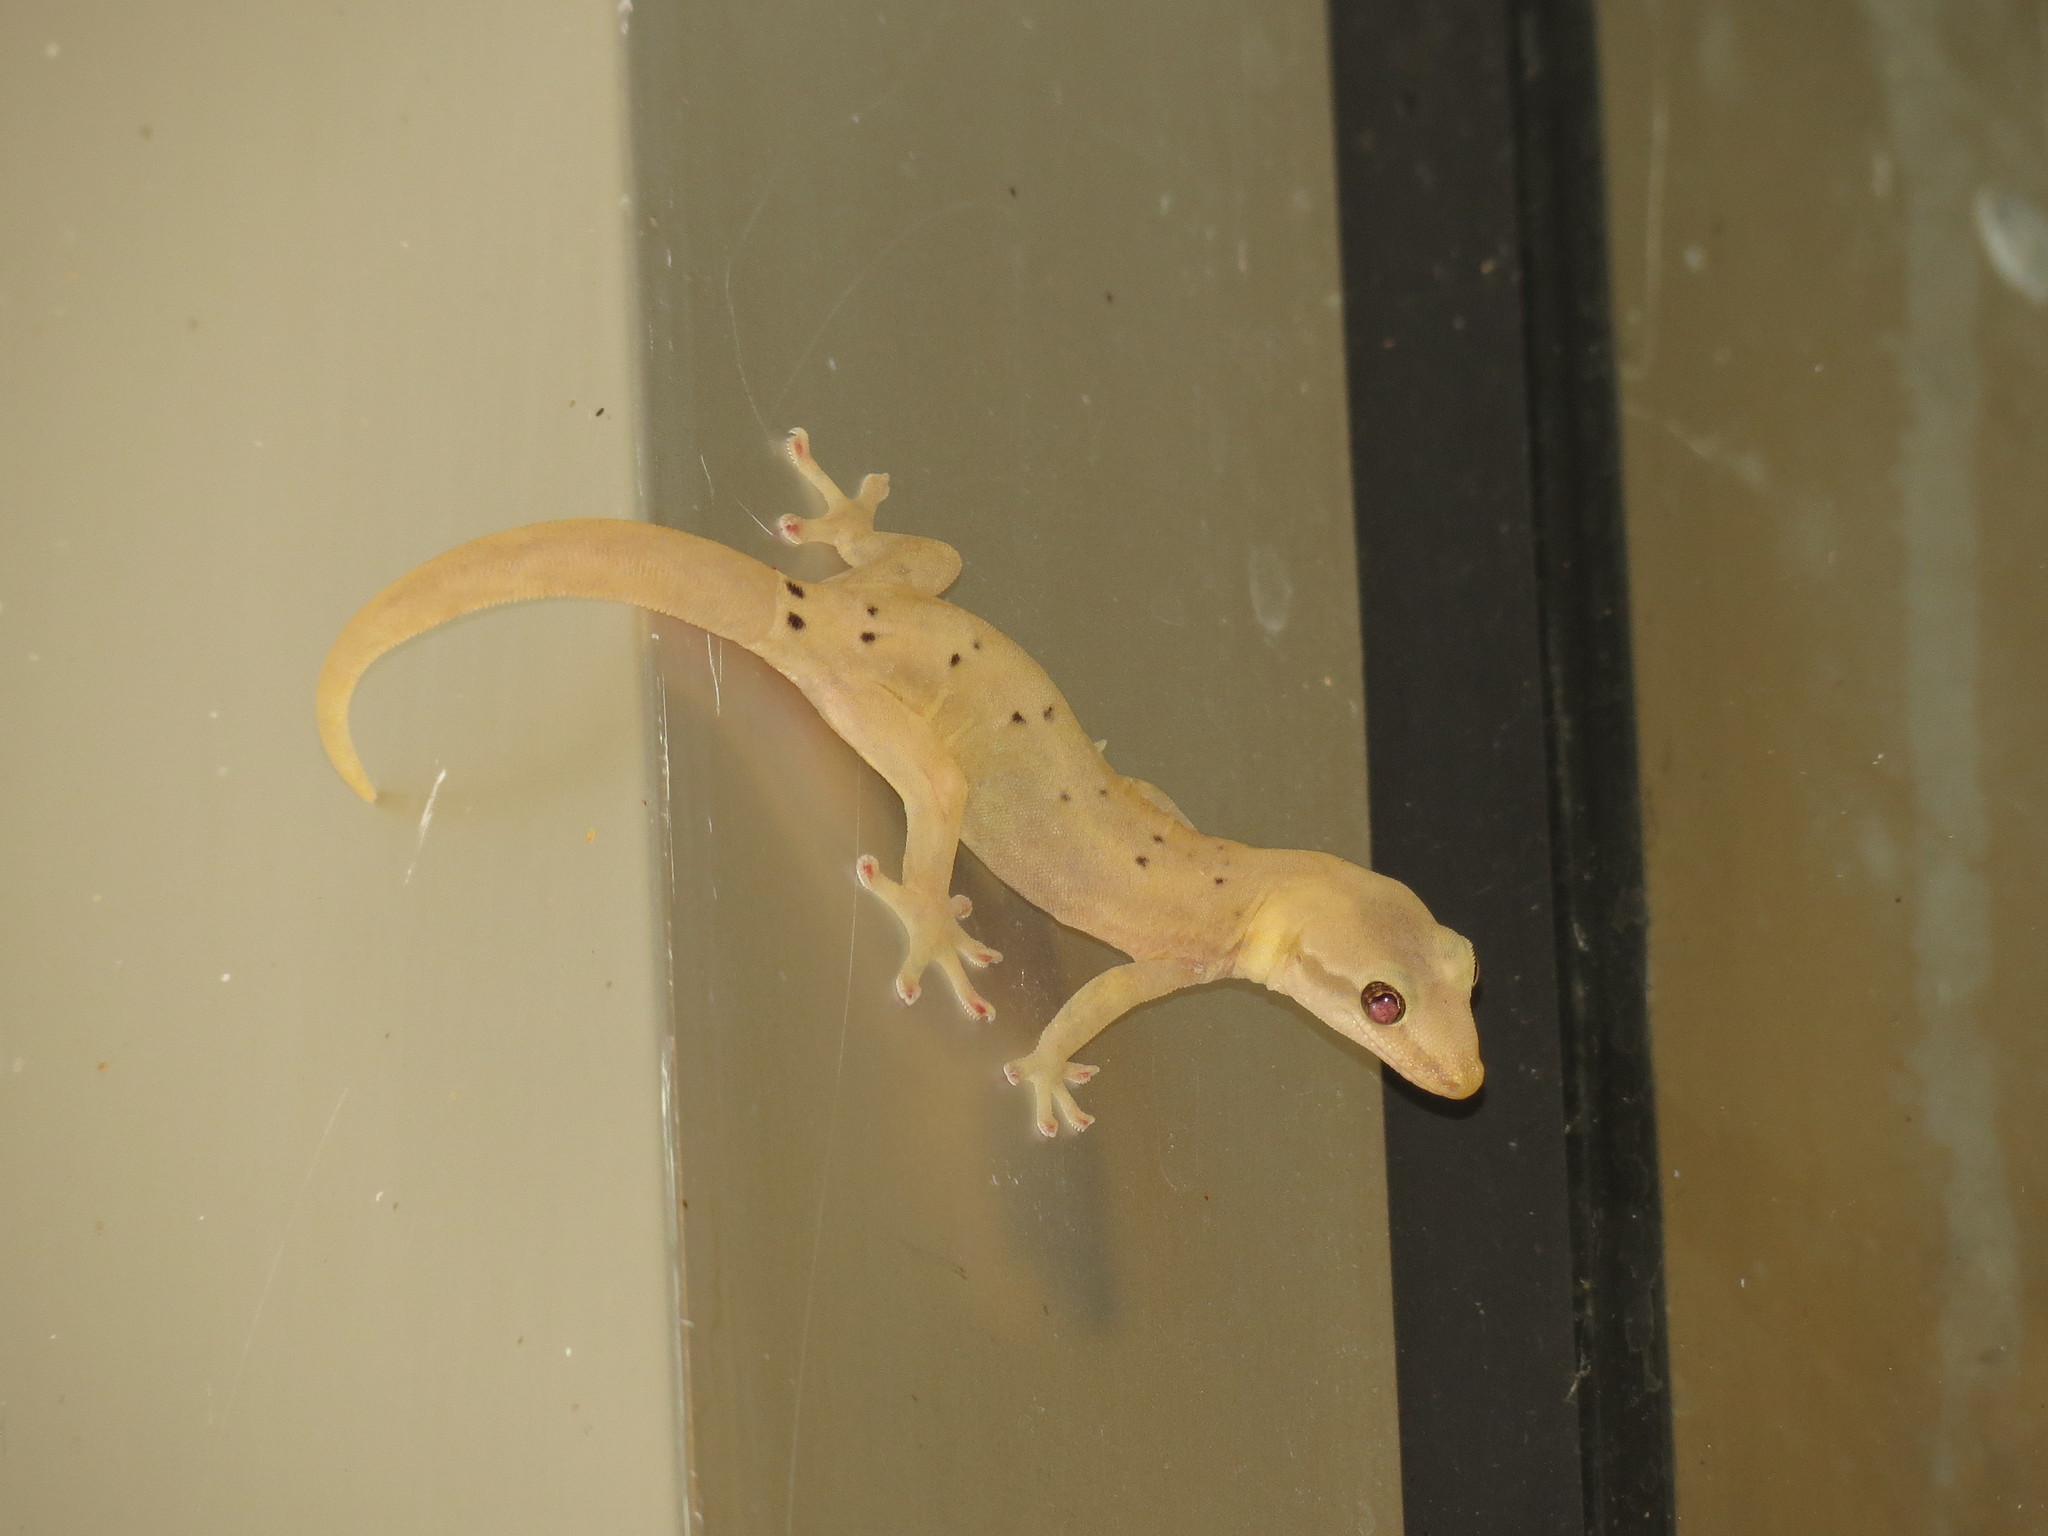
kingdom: Animalia
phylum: Chordata
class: Squamata
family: Gekkonidae
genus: Lepidodactylus
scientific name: Lepidodactylus lugubris
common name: Mourning gecko
